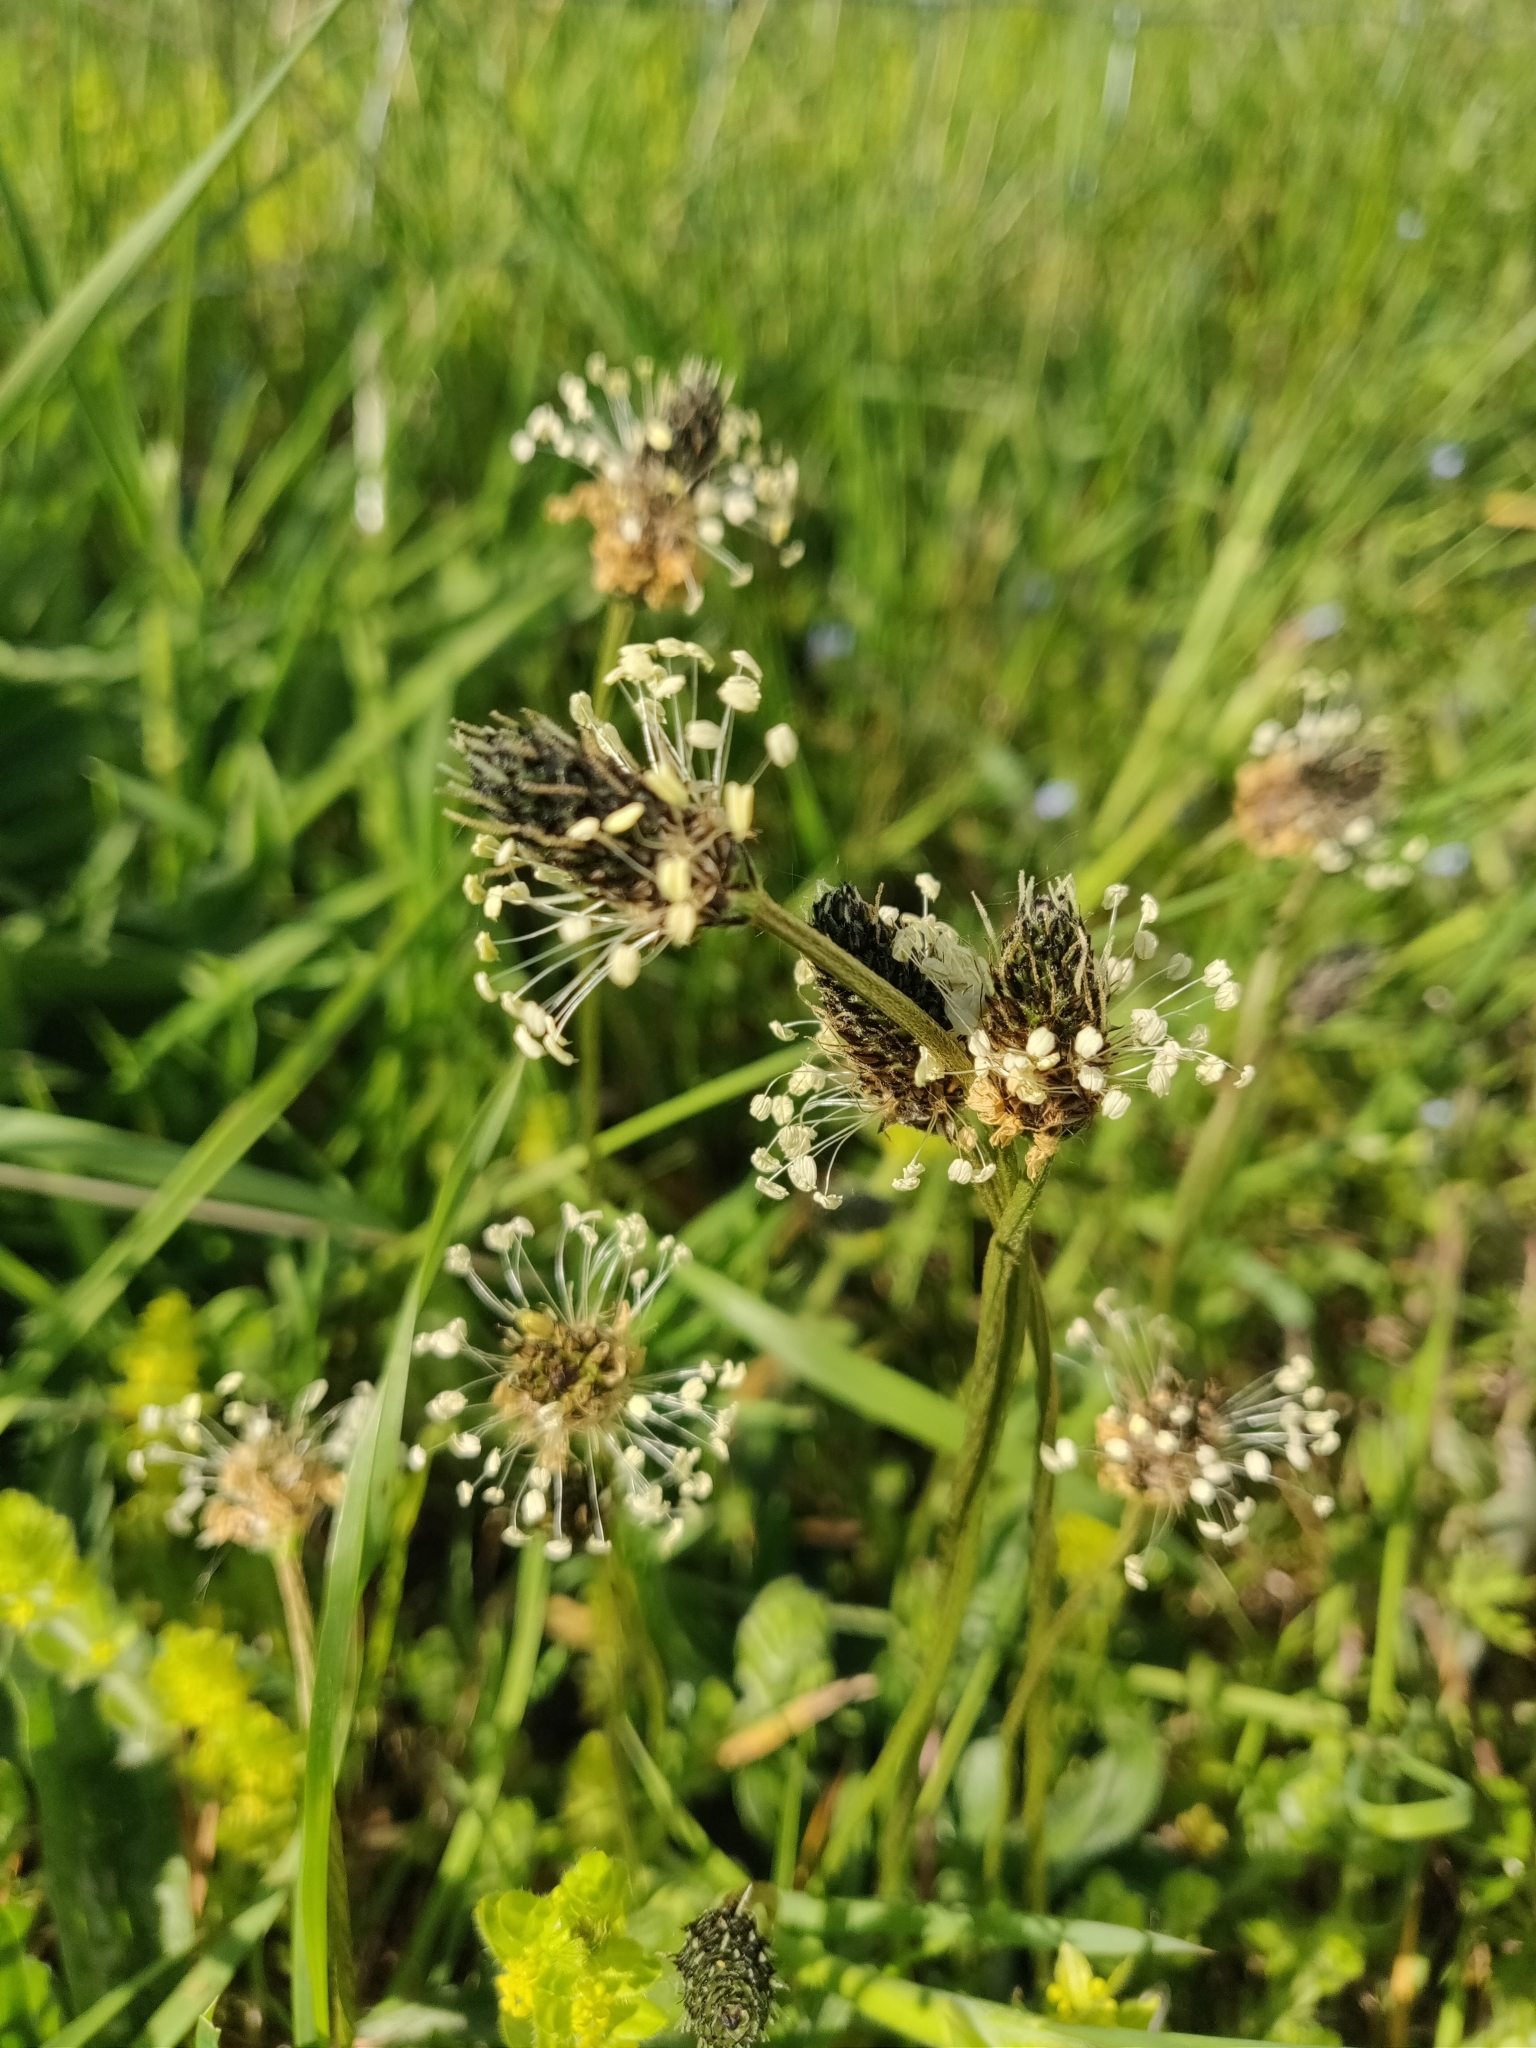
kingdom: Plantae
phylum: Tracheophyta
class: Magnoliopsida
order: Lamiales
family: Plantaginaceae
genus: Plantago
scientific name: Plantago lanceolata
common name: Ribwort plantain
